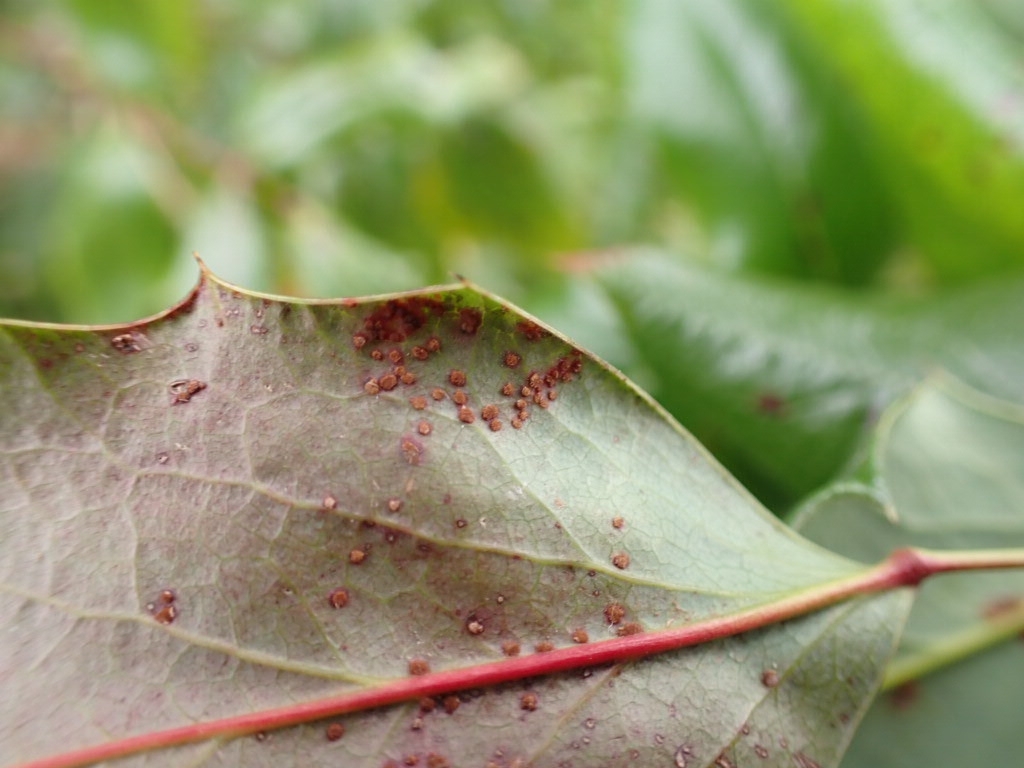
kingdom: Fungi
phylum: Basidiomycota
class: Pucciniomycetes
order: Pucciniales
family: Pucciniaceae
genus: Cumminsiella
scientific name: Cumminsiella mirabilissima
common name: Mahonia rust
